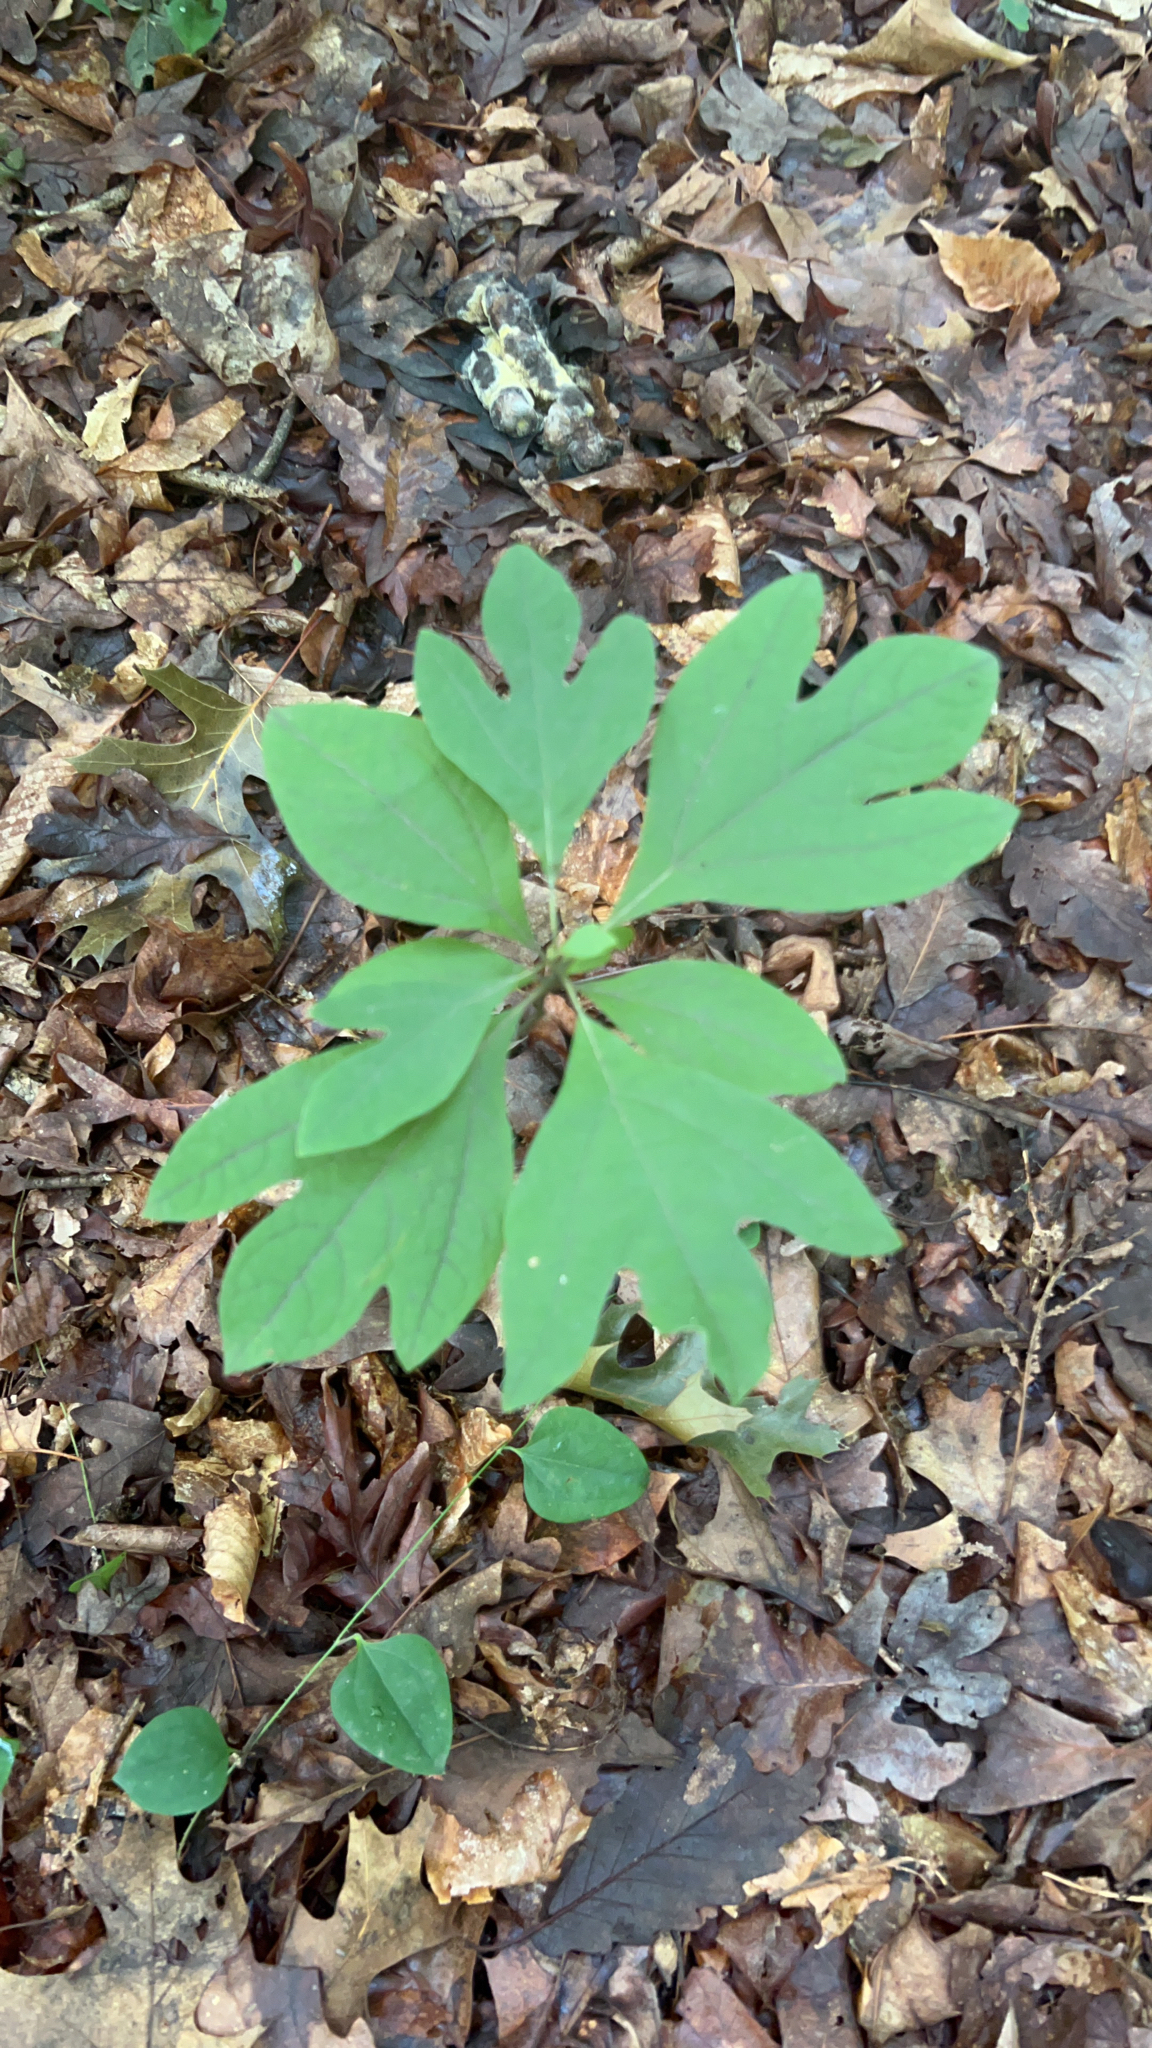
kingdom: Plantae
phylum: Tracheophyta
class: Magnoliopsida
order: Laurales
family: Lauraceae
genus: Sassafras
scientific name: Sassafras albidum
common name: Sassafras
